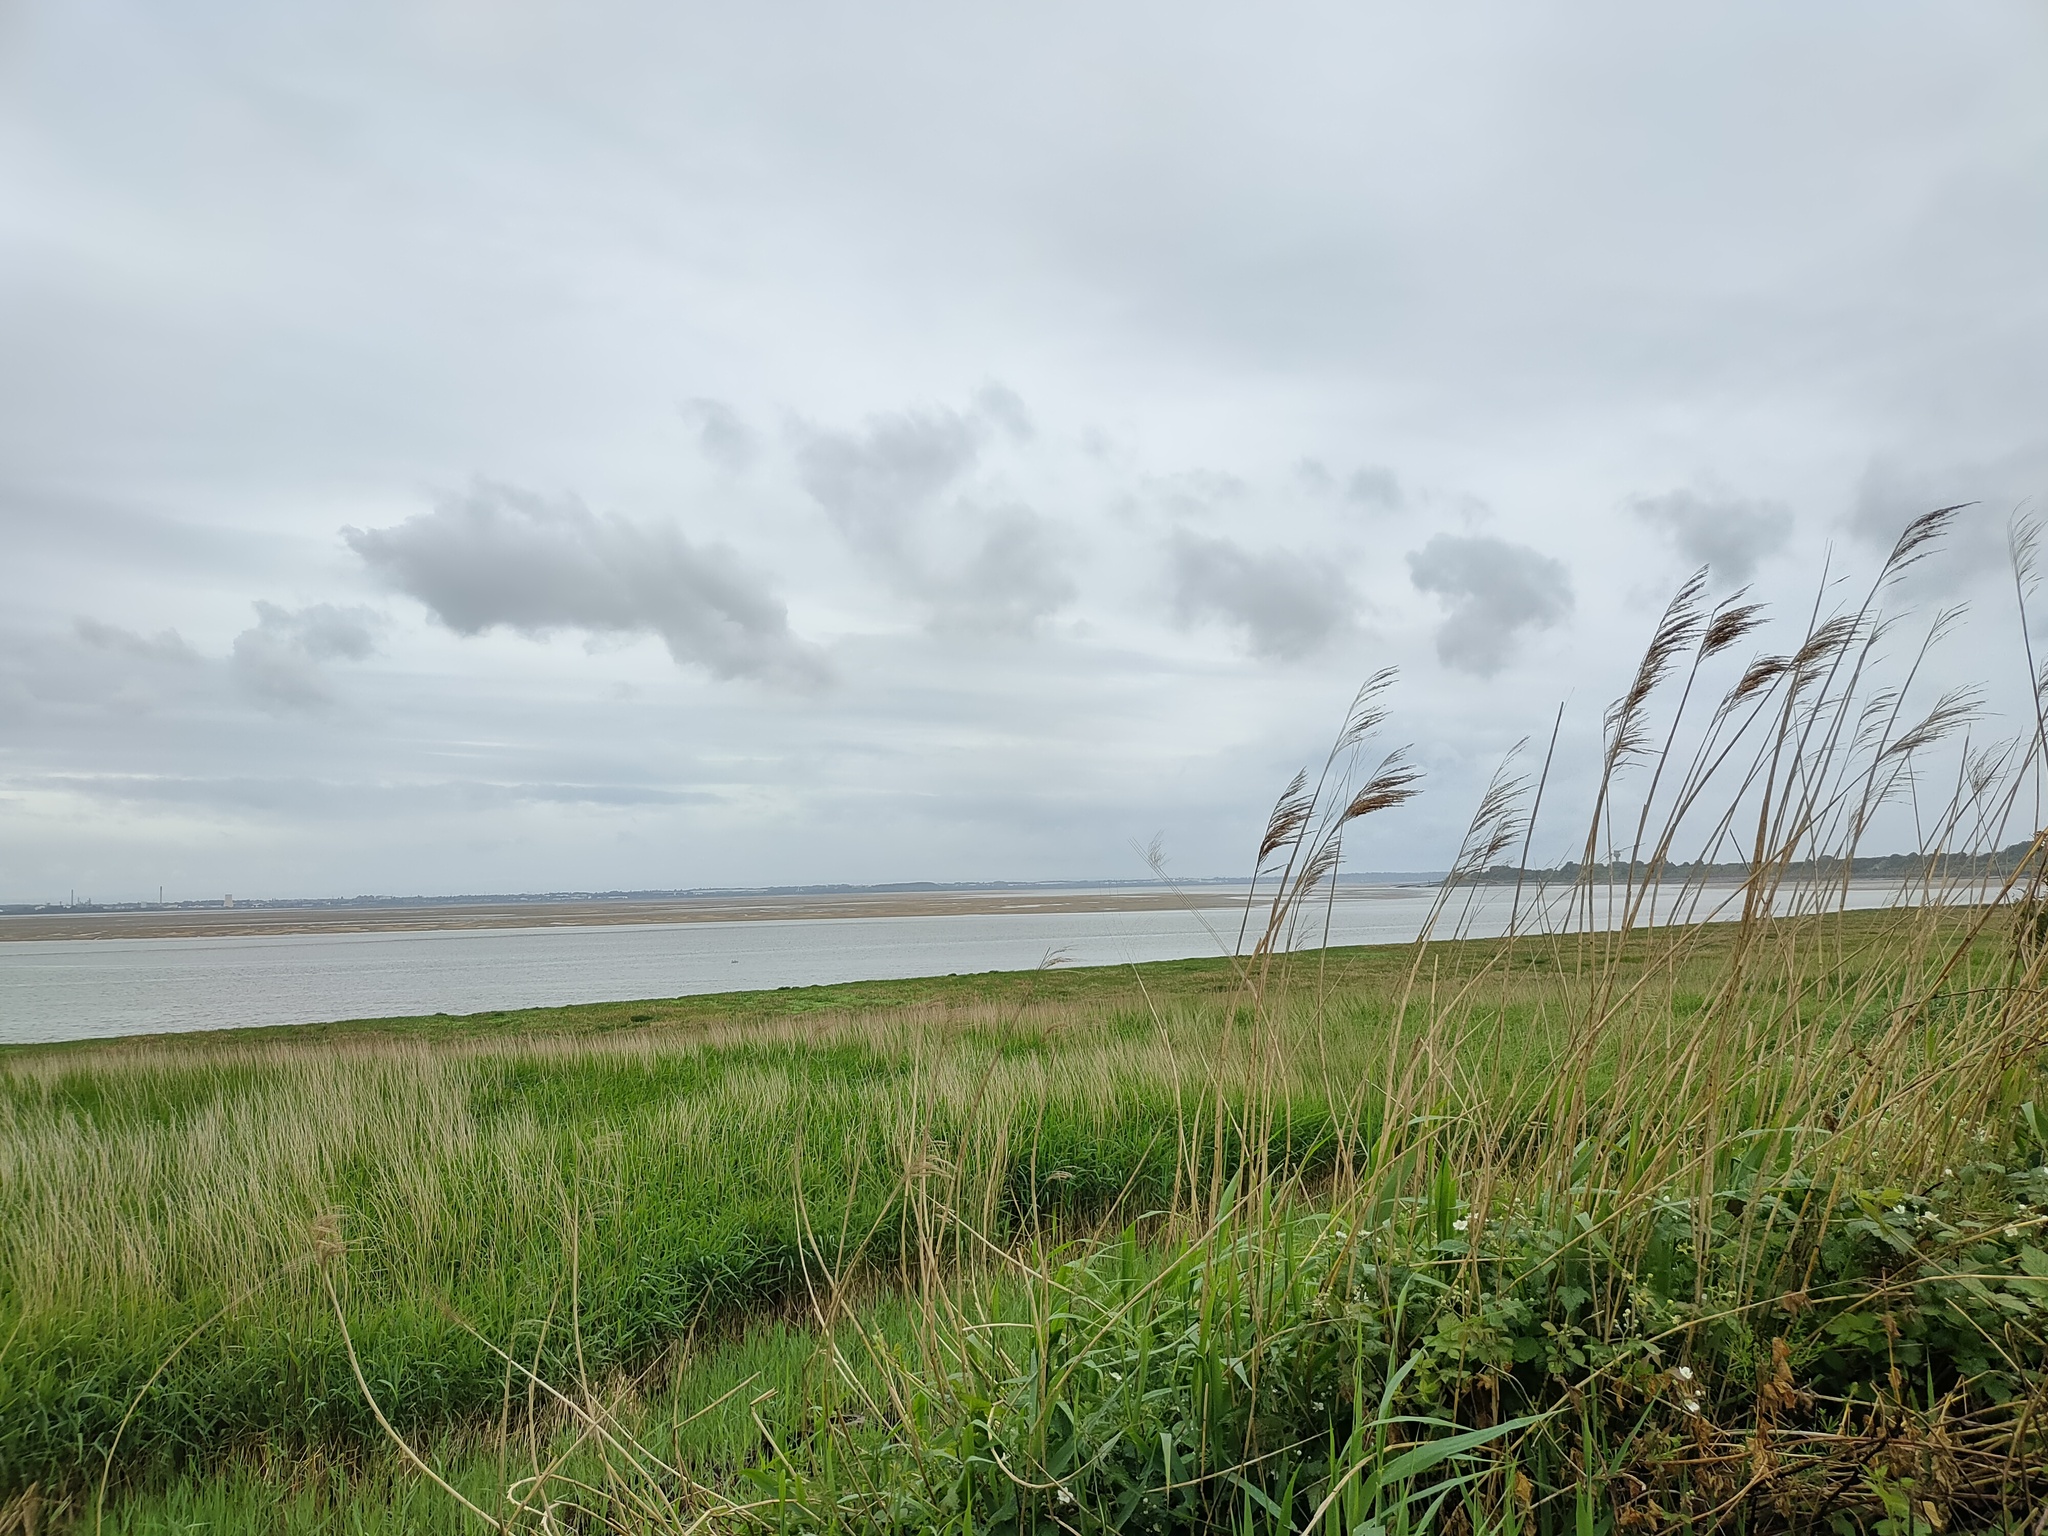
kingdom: Plantae
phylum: Tracheophyta
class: Liliopsida
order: Poales
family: Poaceae
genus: Phalaris
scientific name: Phalaris arundinacea
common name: Reed canary-grass
